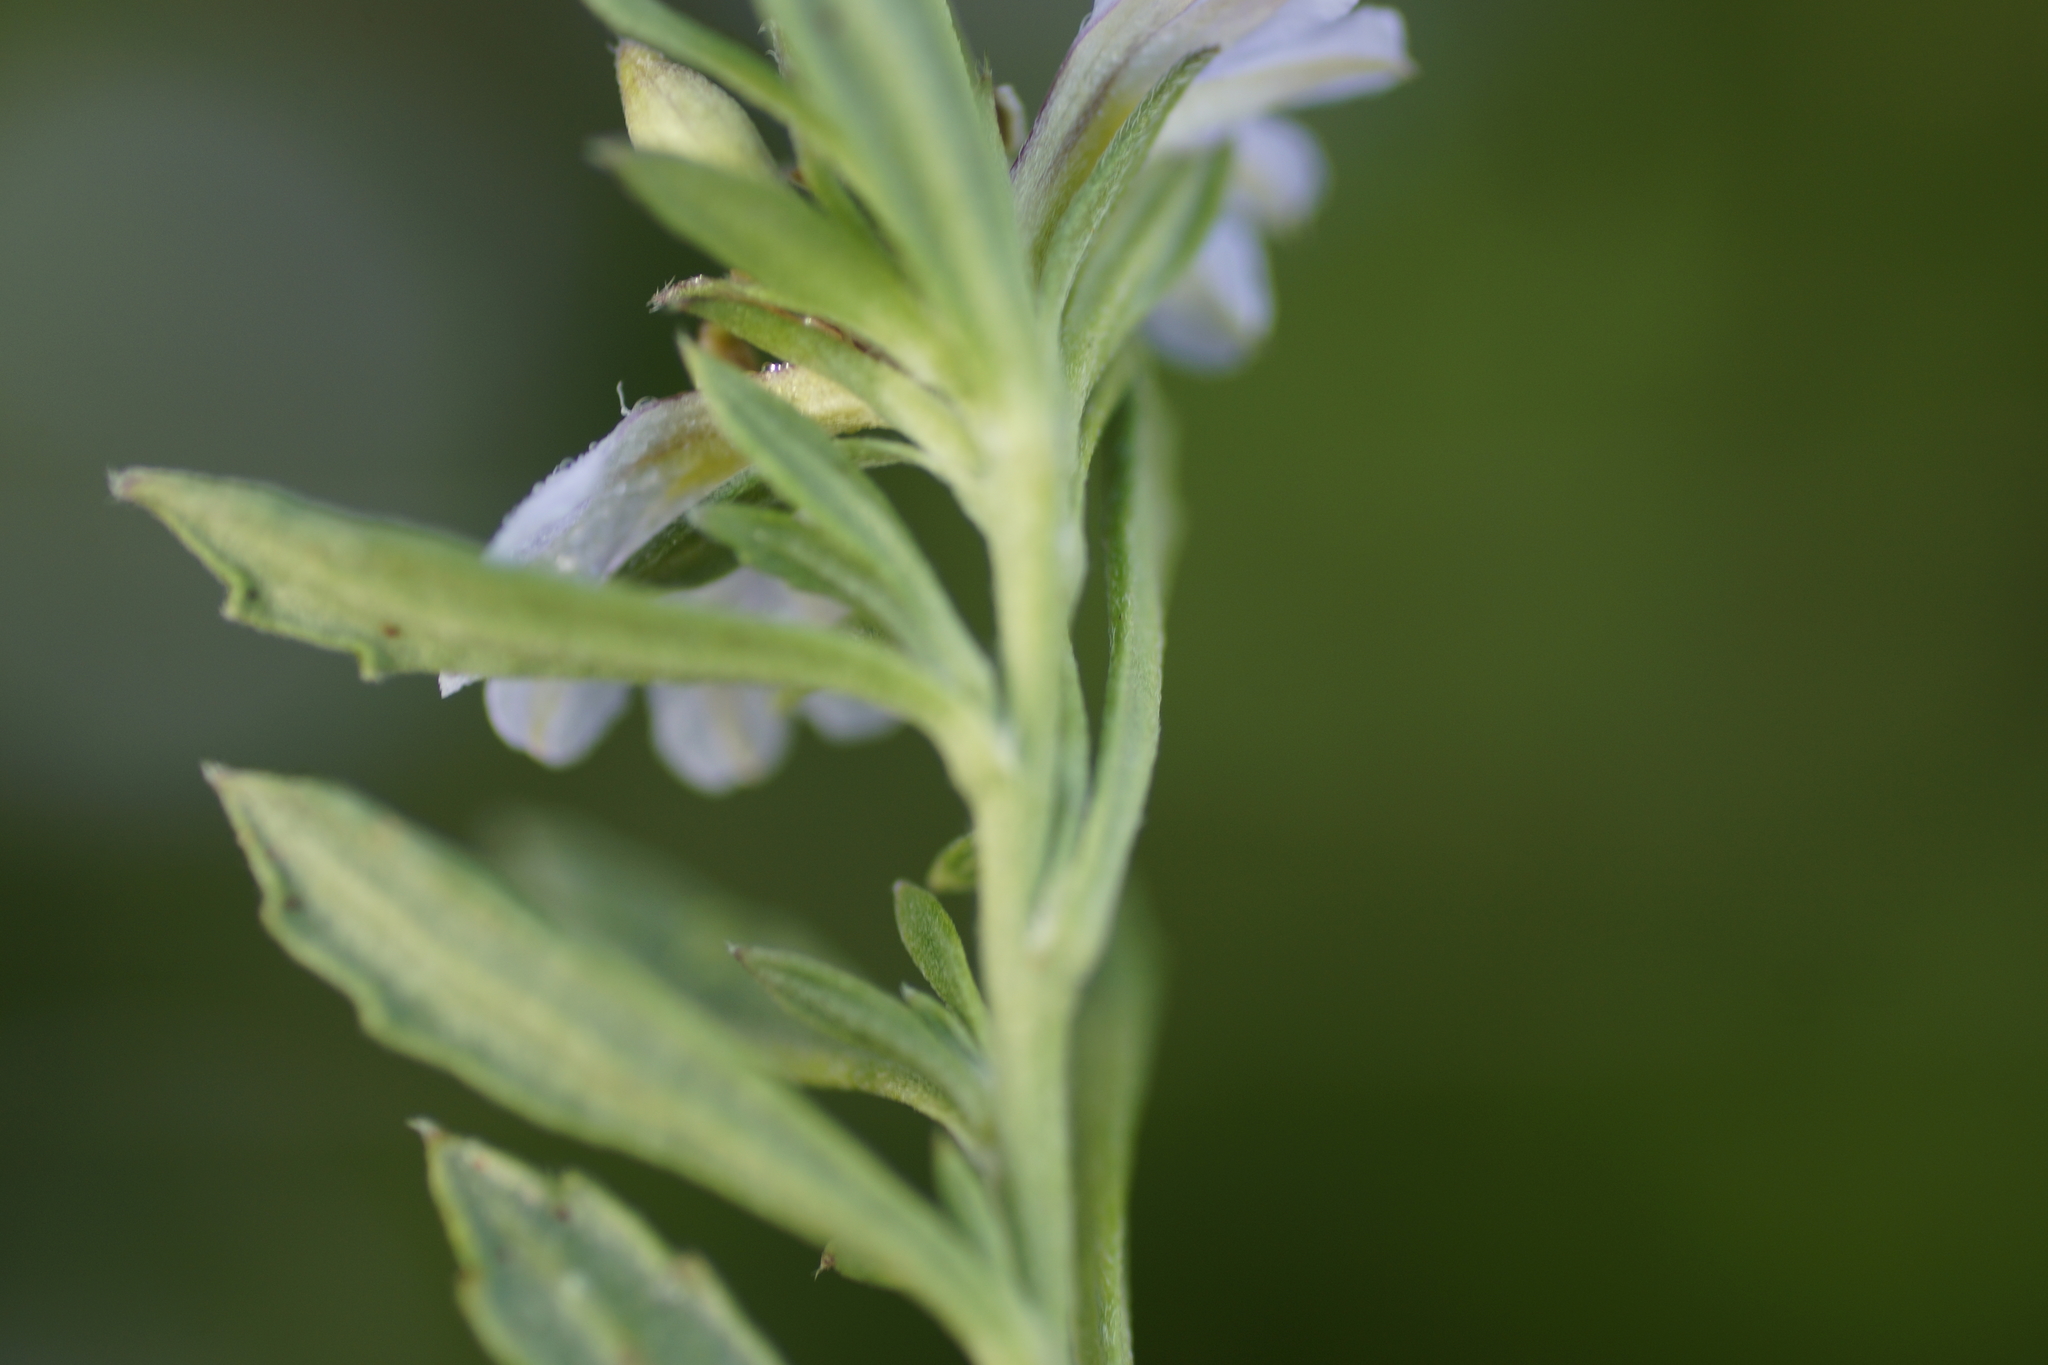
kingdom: Plantae
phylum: Tracheophyta
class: Magnoliopsida
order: Asterales
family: Goodeniaceae
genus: Scaevola
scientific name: Scaevola albida
